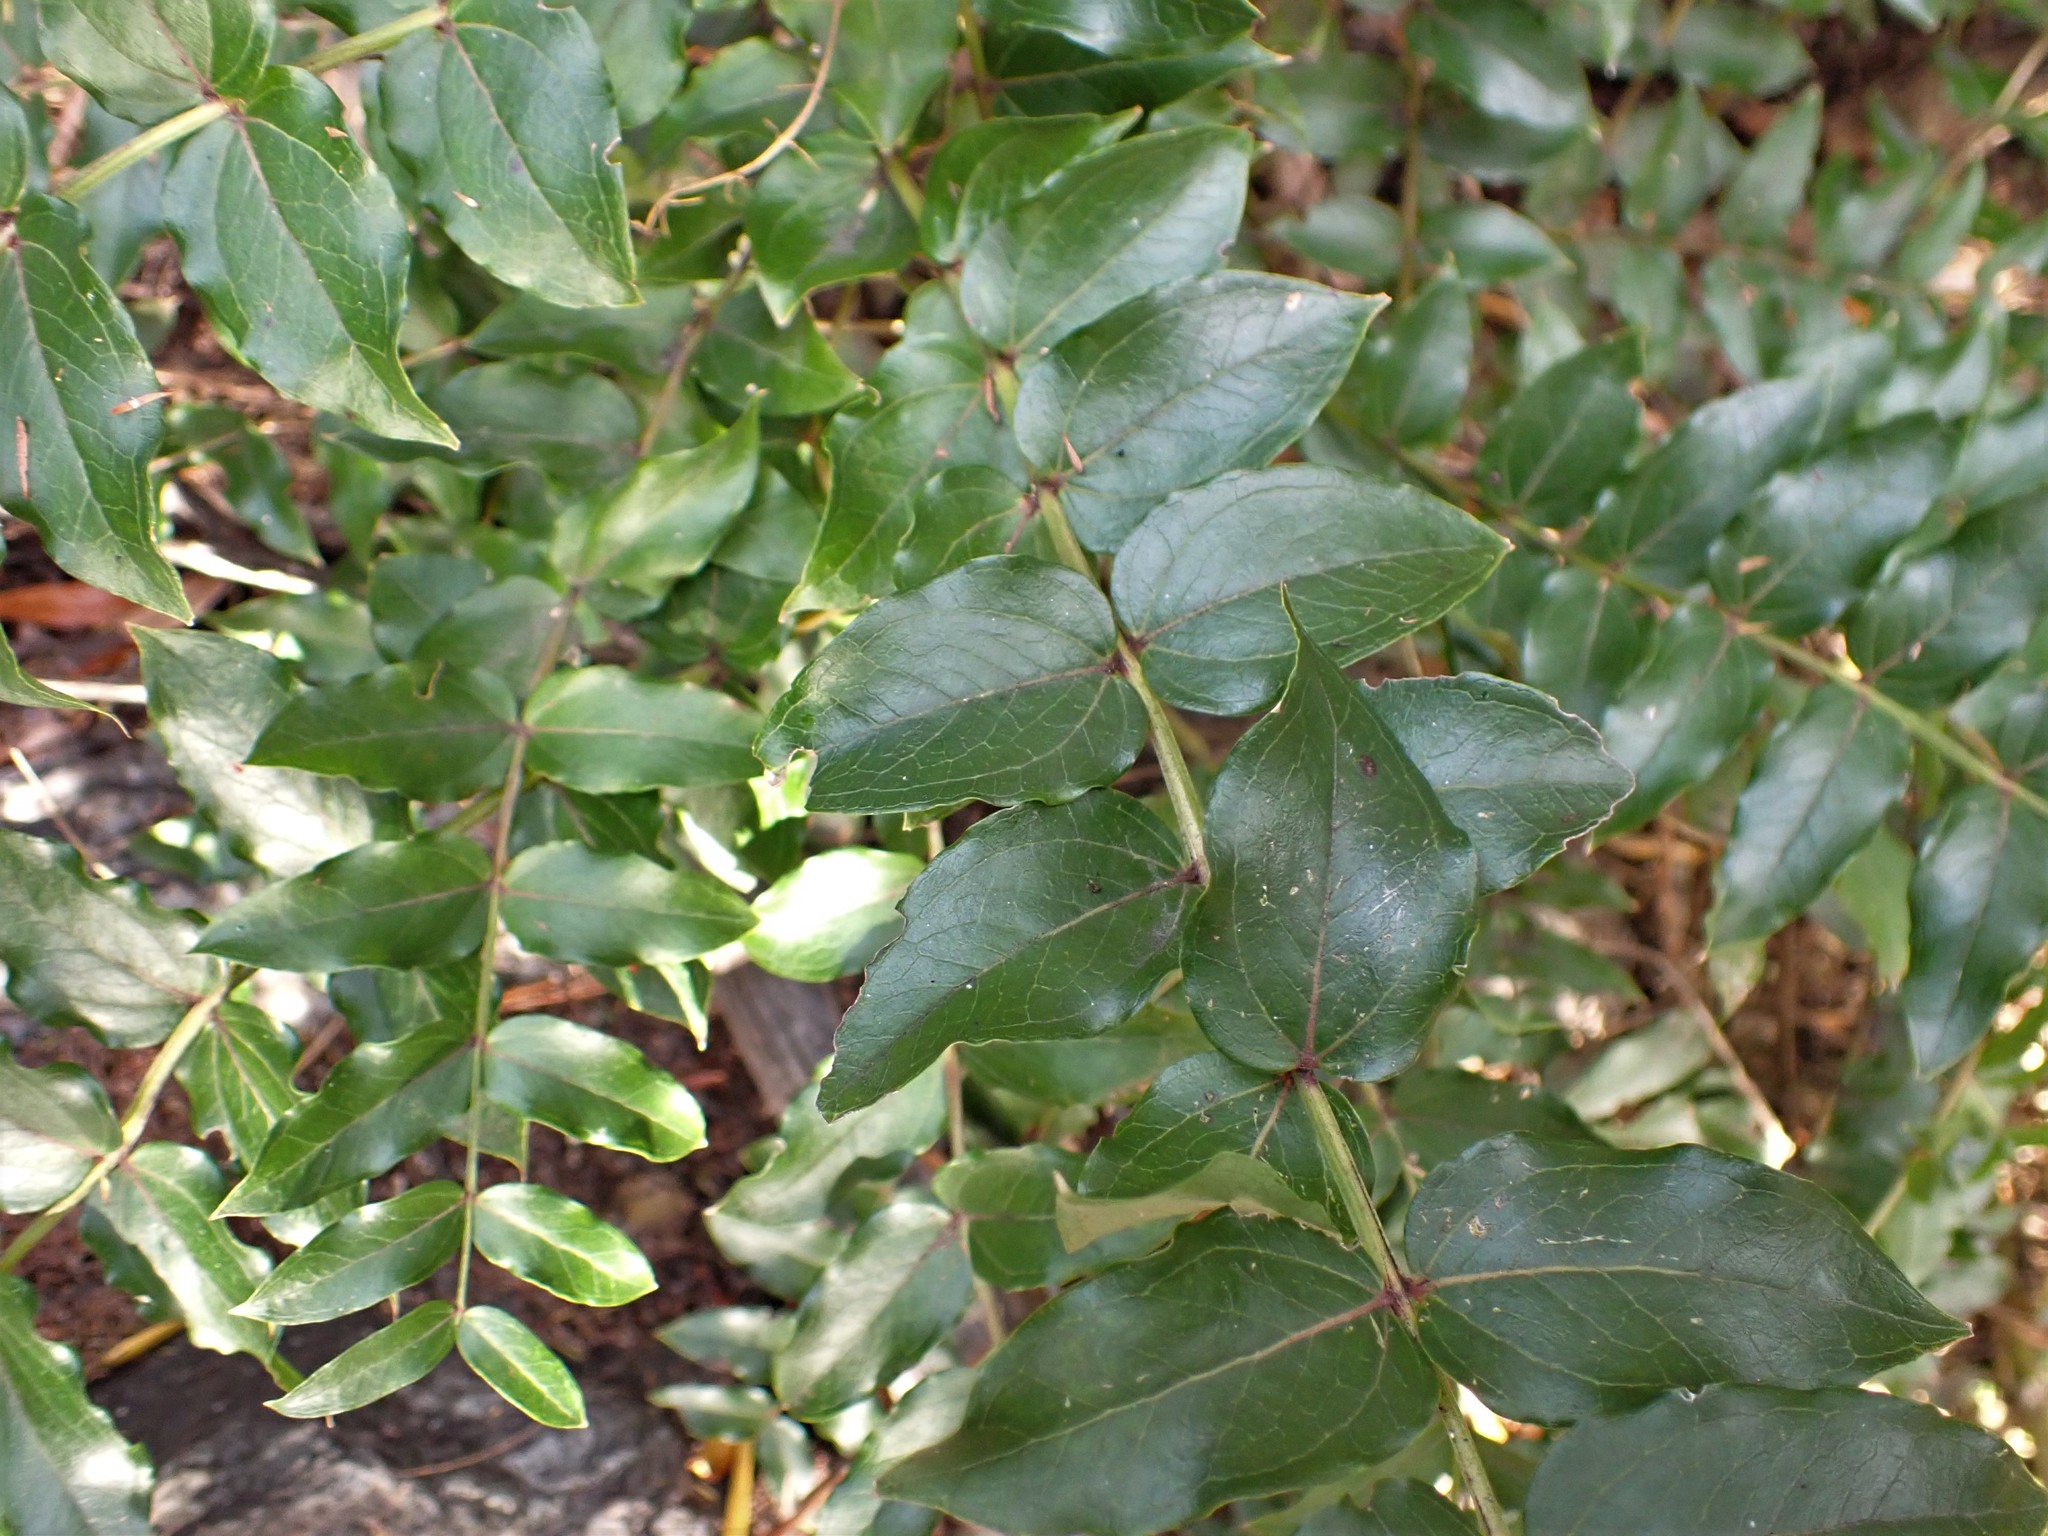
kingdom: Plantae
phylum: Tracheophyta
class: Magnoliopsida
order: Cucurbitales
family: Coriariaceae
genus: Coriaria
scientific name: Coriaria sarmentosa
